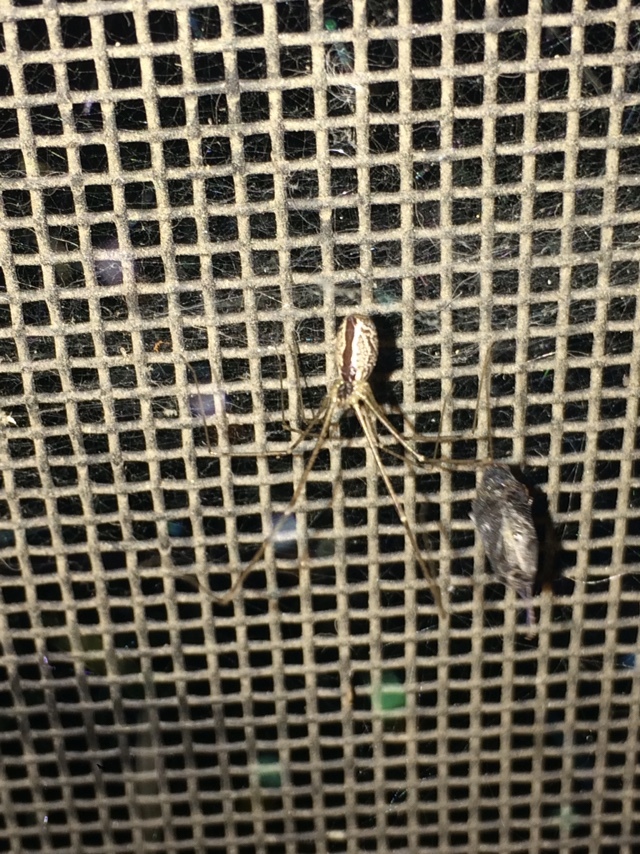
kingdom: Animalia
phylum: Arthropoda
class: Arachnida
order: Araneae
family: Pholcidae
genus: Holocnemus
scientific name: Holocnemus pluchei
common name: Marbled cellar spider
